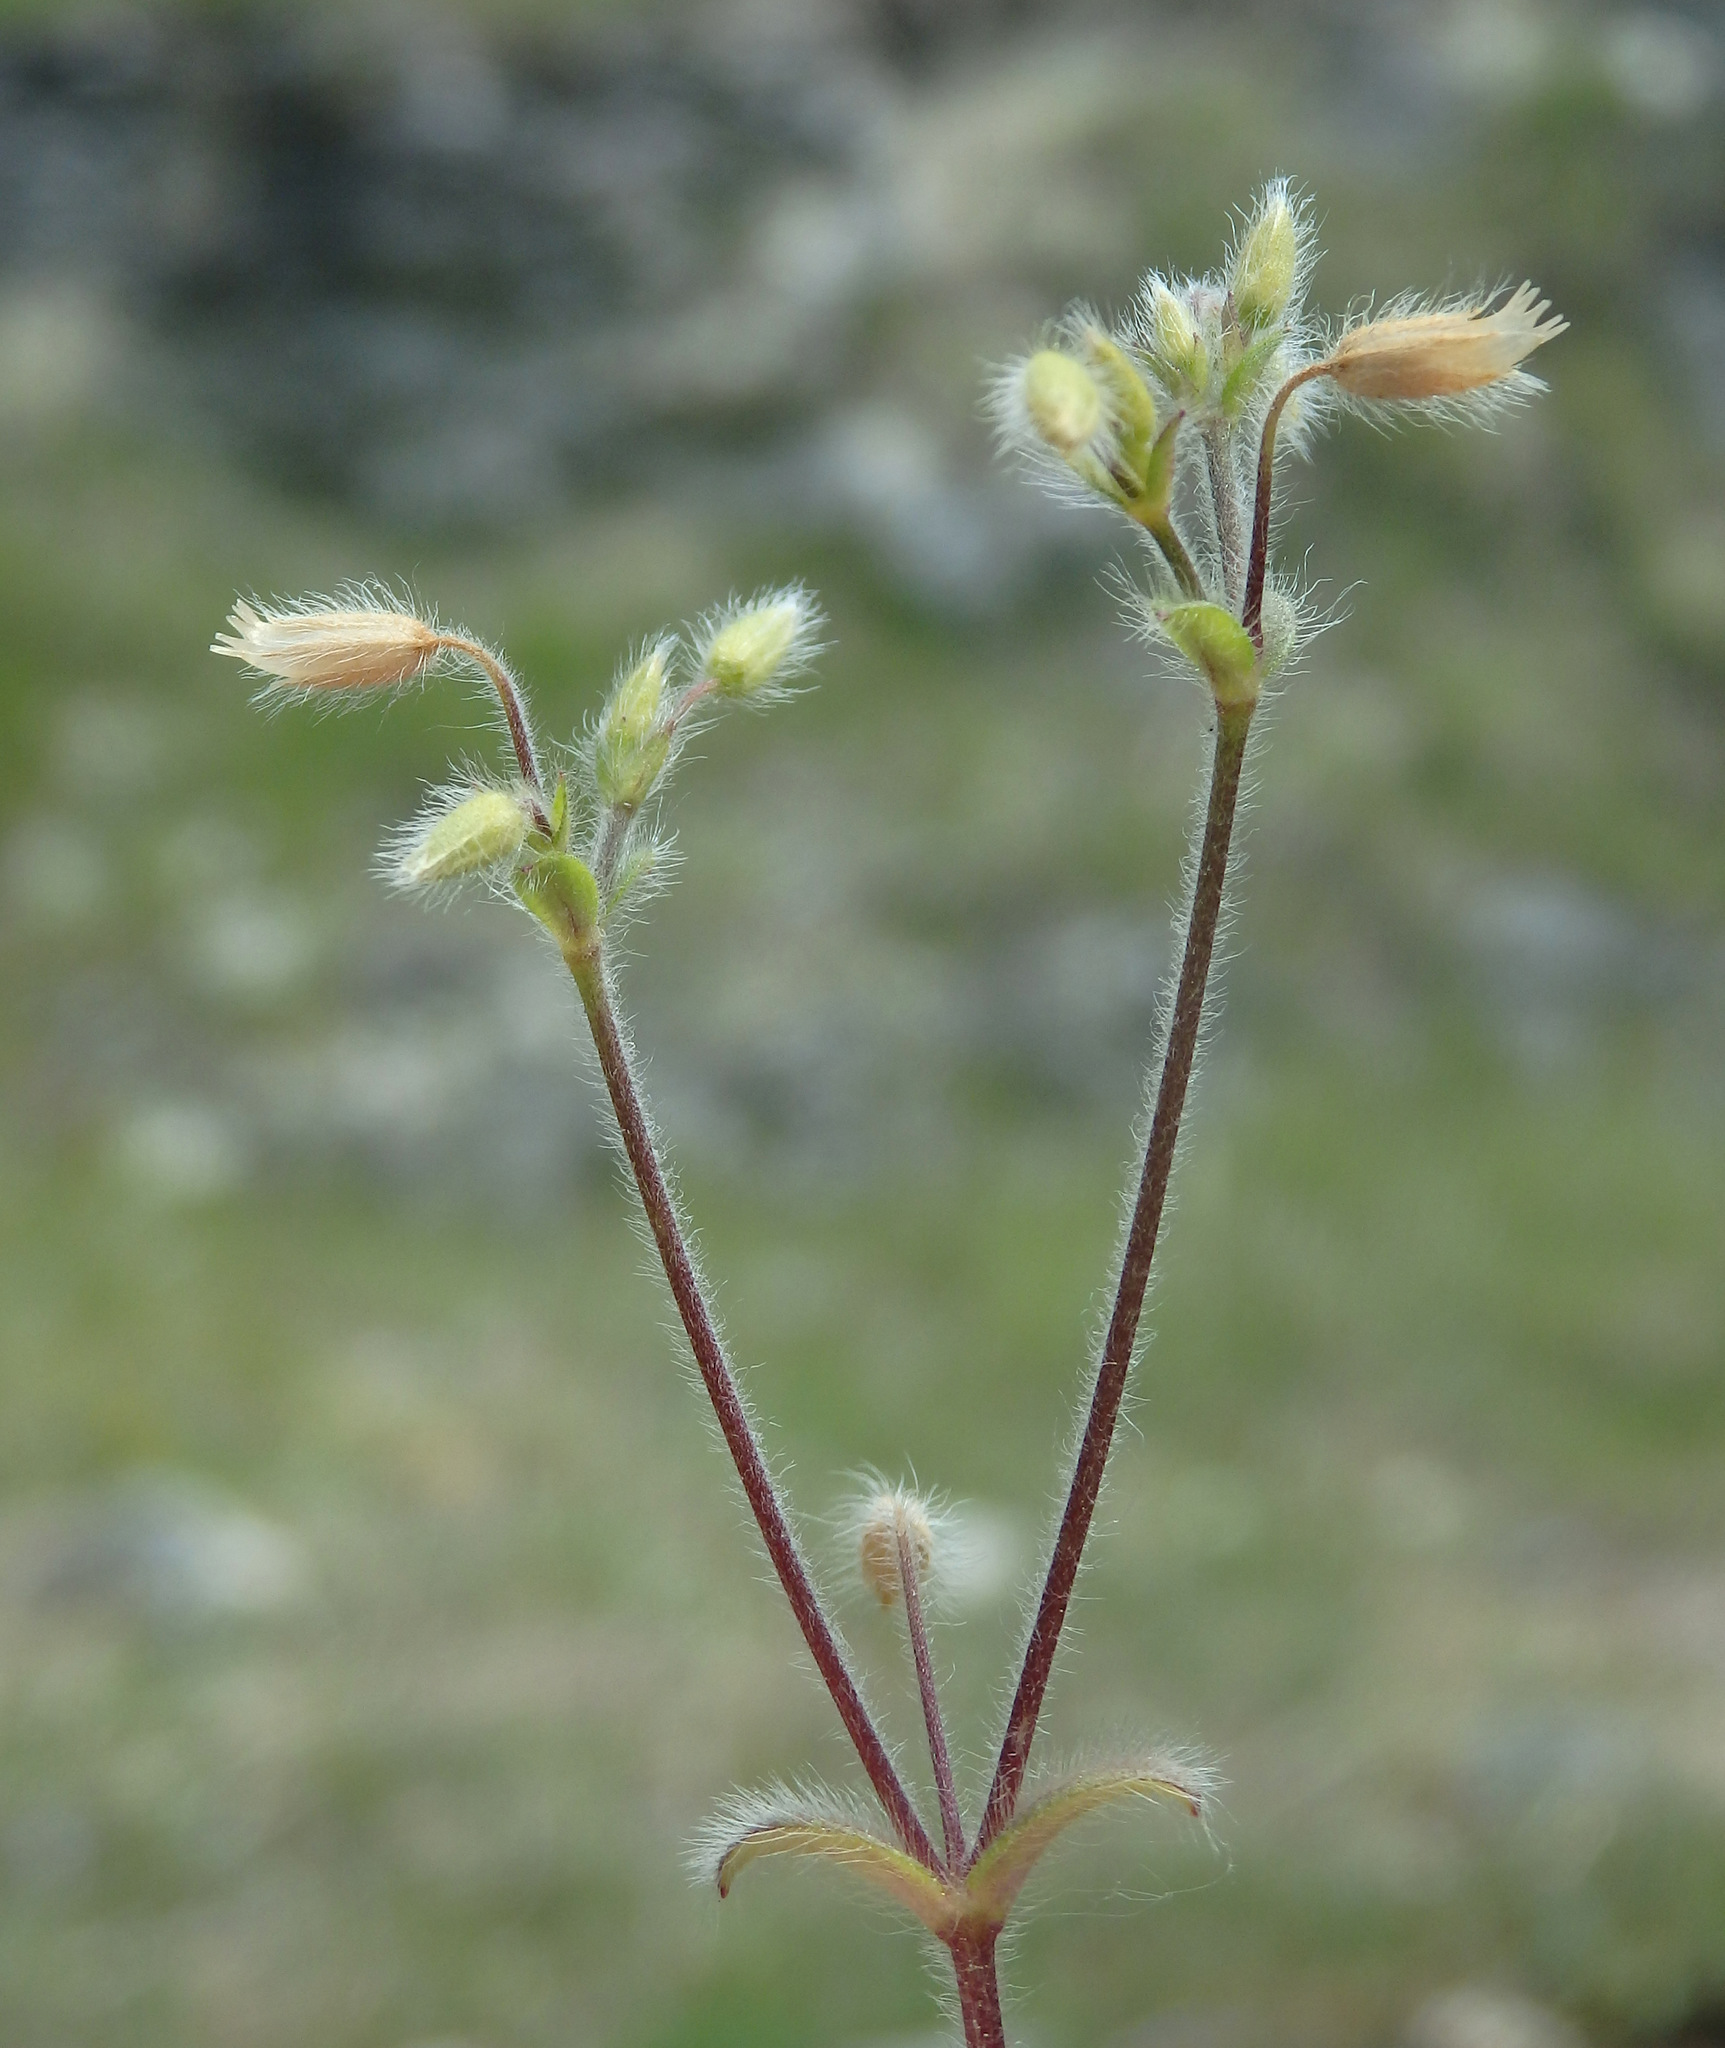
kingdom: Plantae
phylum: Tracheophyta
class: Magnoliopsida
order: Caryophyllales
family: Caryophyllaceae
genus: Cerastium
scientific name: Cerastium brachypetalum
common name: Grey mouse-ear
